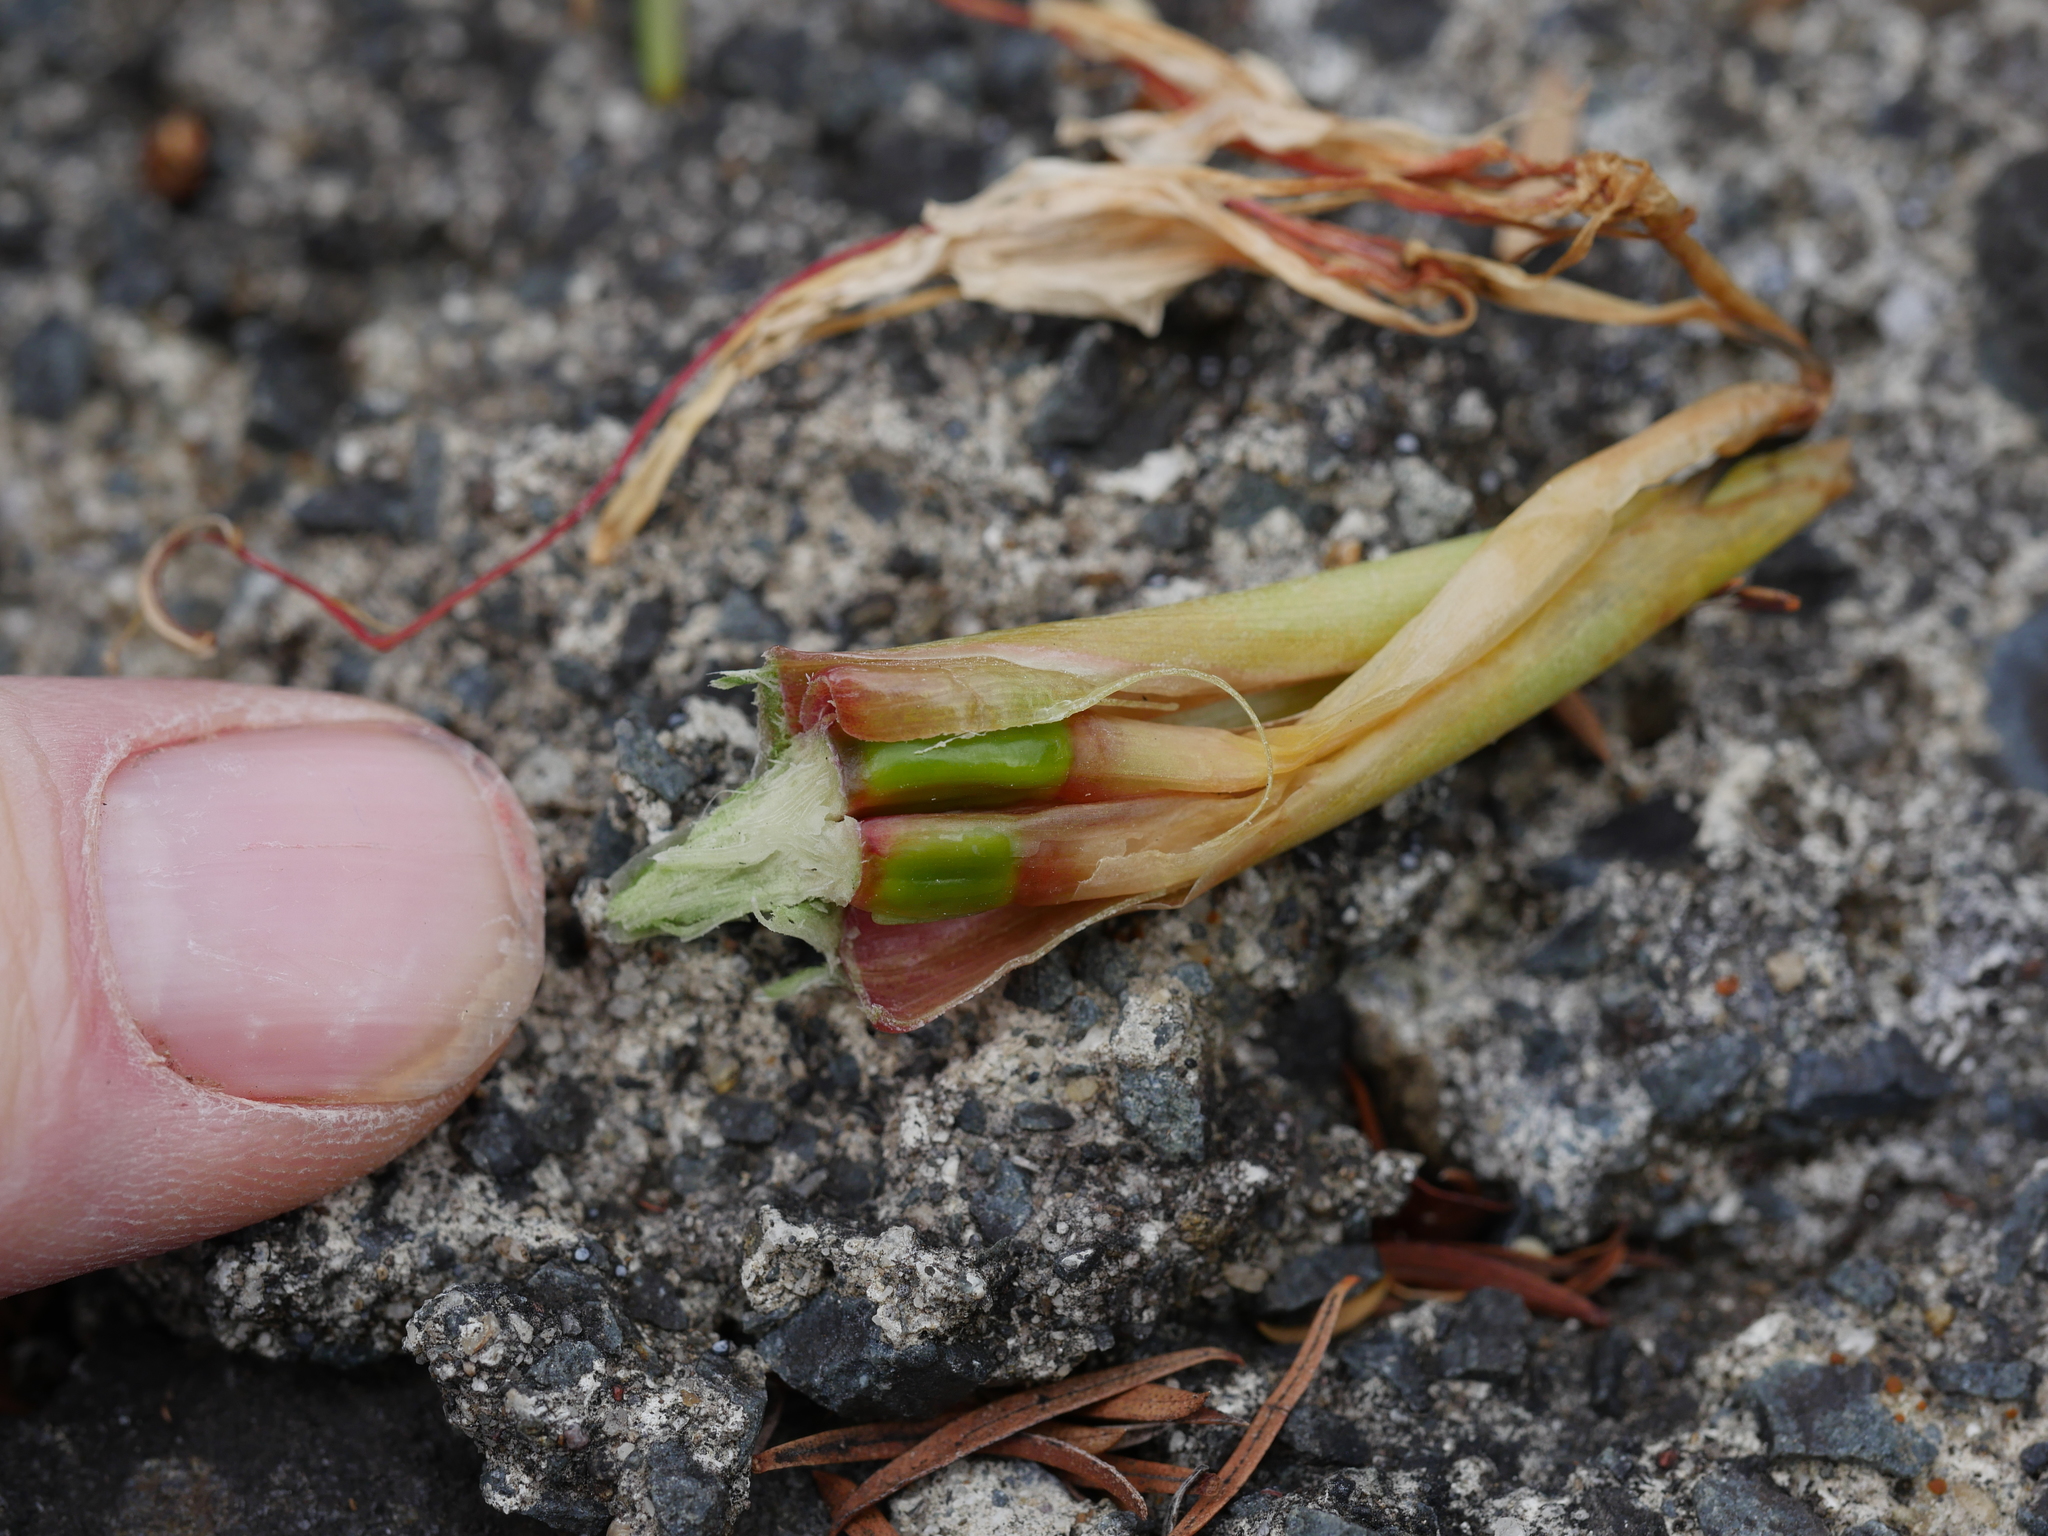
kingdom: Plantae
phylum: Tracheophyta
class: Liliopsida
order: Zingiberales
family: Zingiberaceae
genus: Hedychium
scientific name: Hedychium gardnerianum
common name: Himalayan ginger
